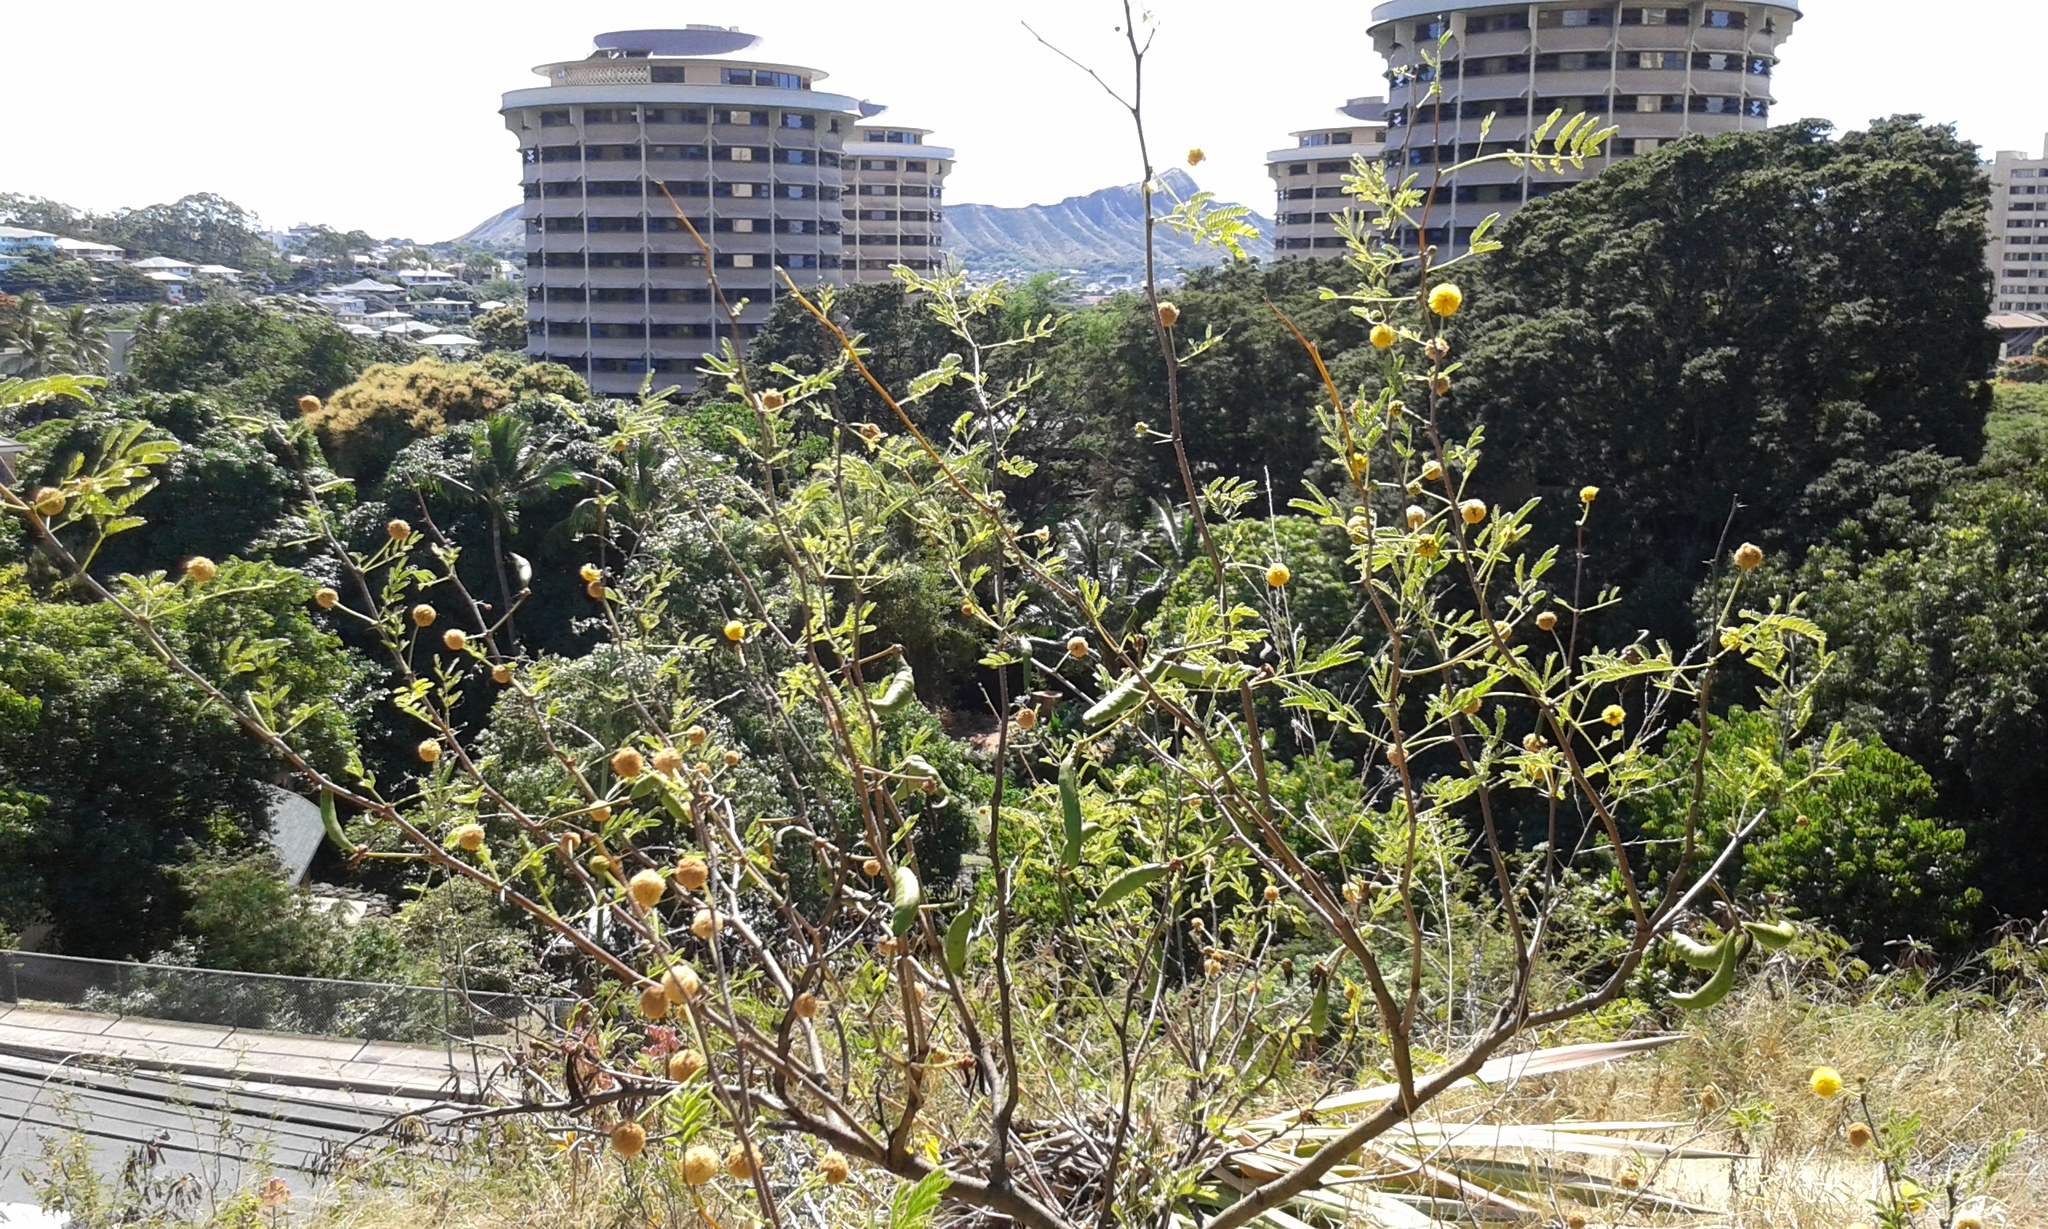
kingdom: Plantae
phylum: Tracheophyta
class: Magnoliopsida
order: Fabales
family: Fabaceae
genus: Vachellia
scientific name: Vachellia farnesiana
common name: Sweet acacia
